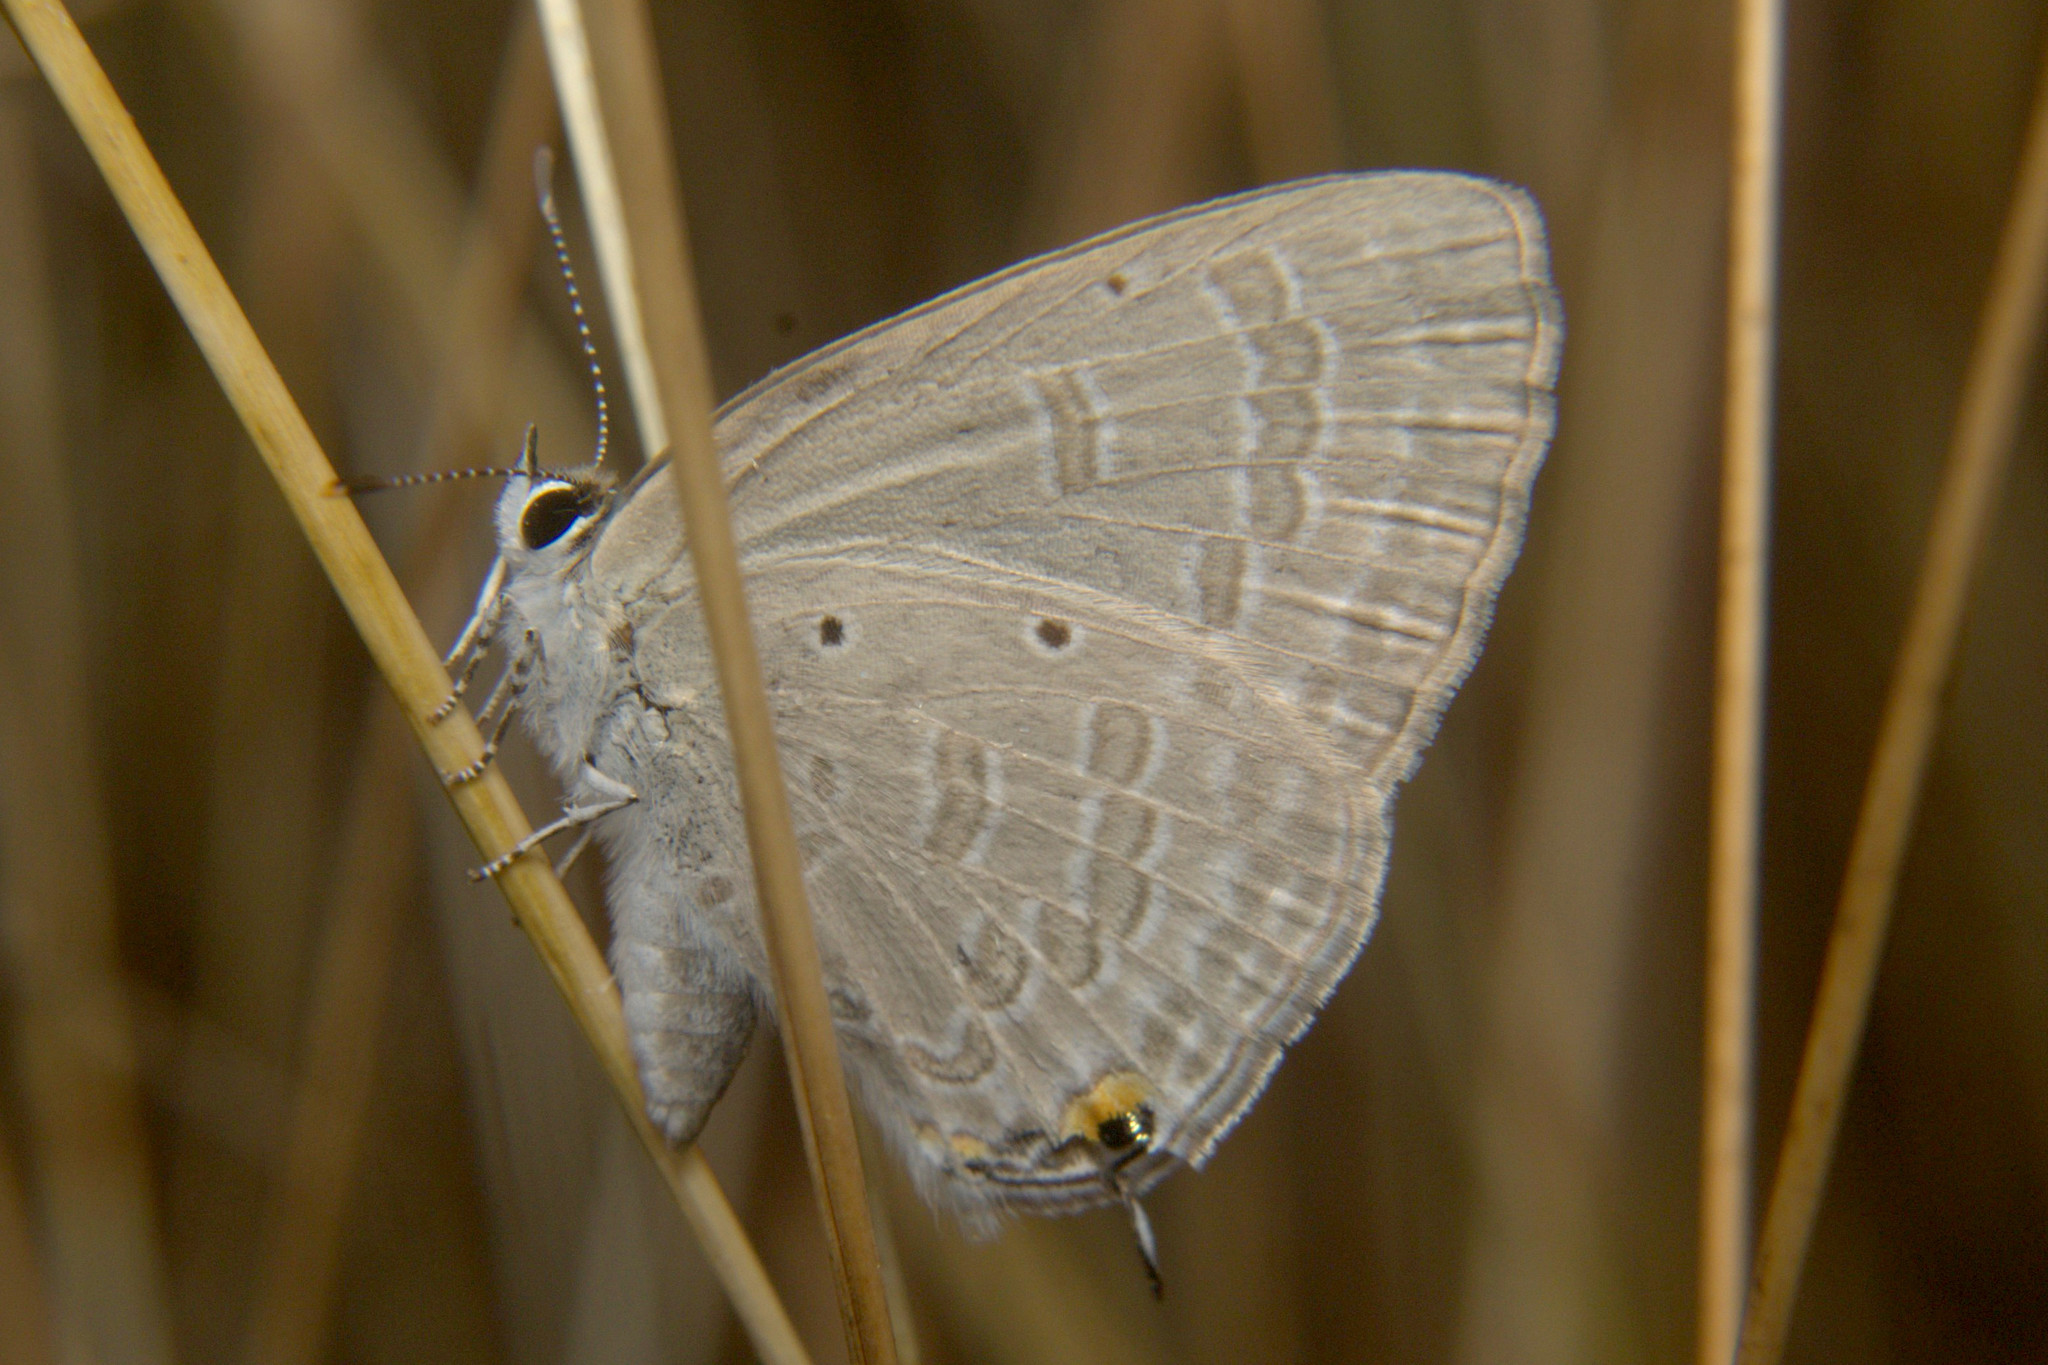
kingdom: Animalia
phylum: Arthropoda
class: Insecta
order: Lepidoptera
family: Lycaenidae
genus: Catochrysops
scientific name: Catochrysops strabo
